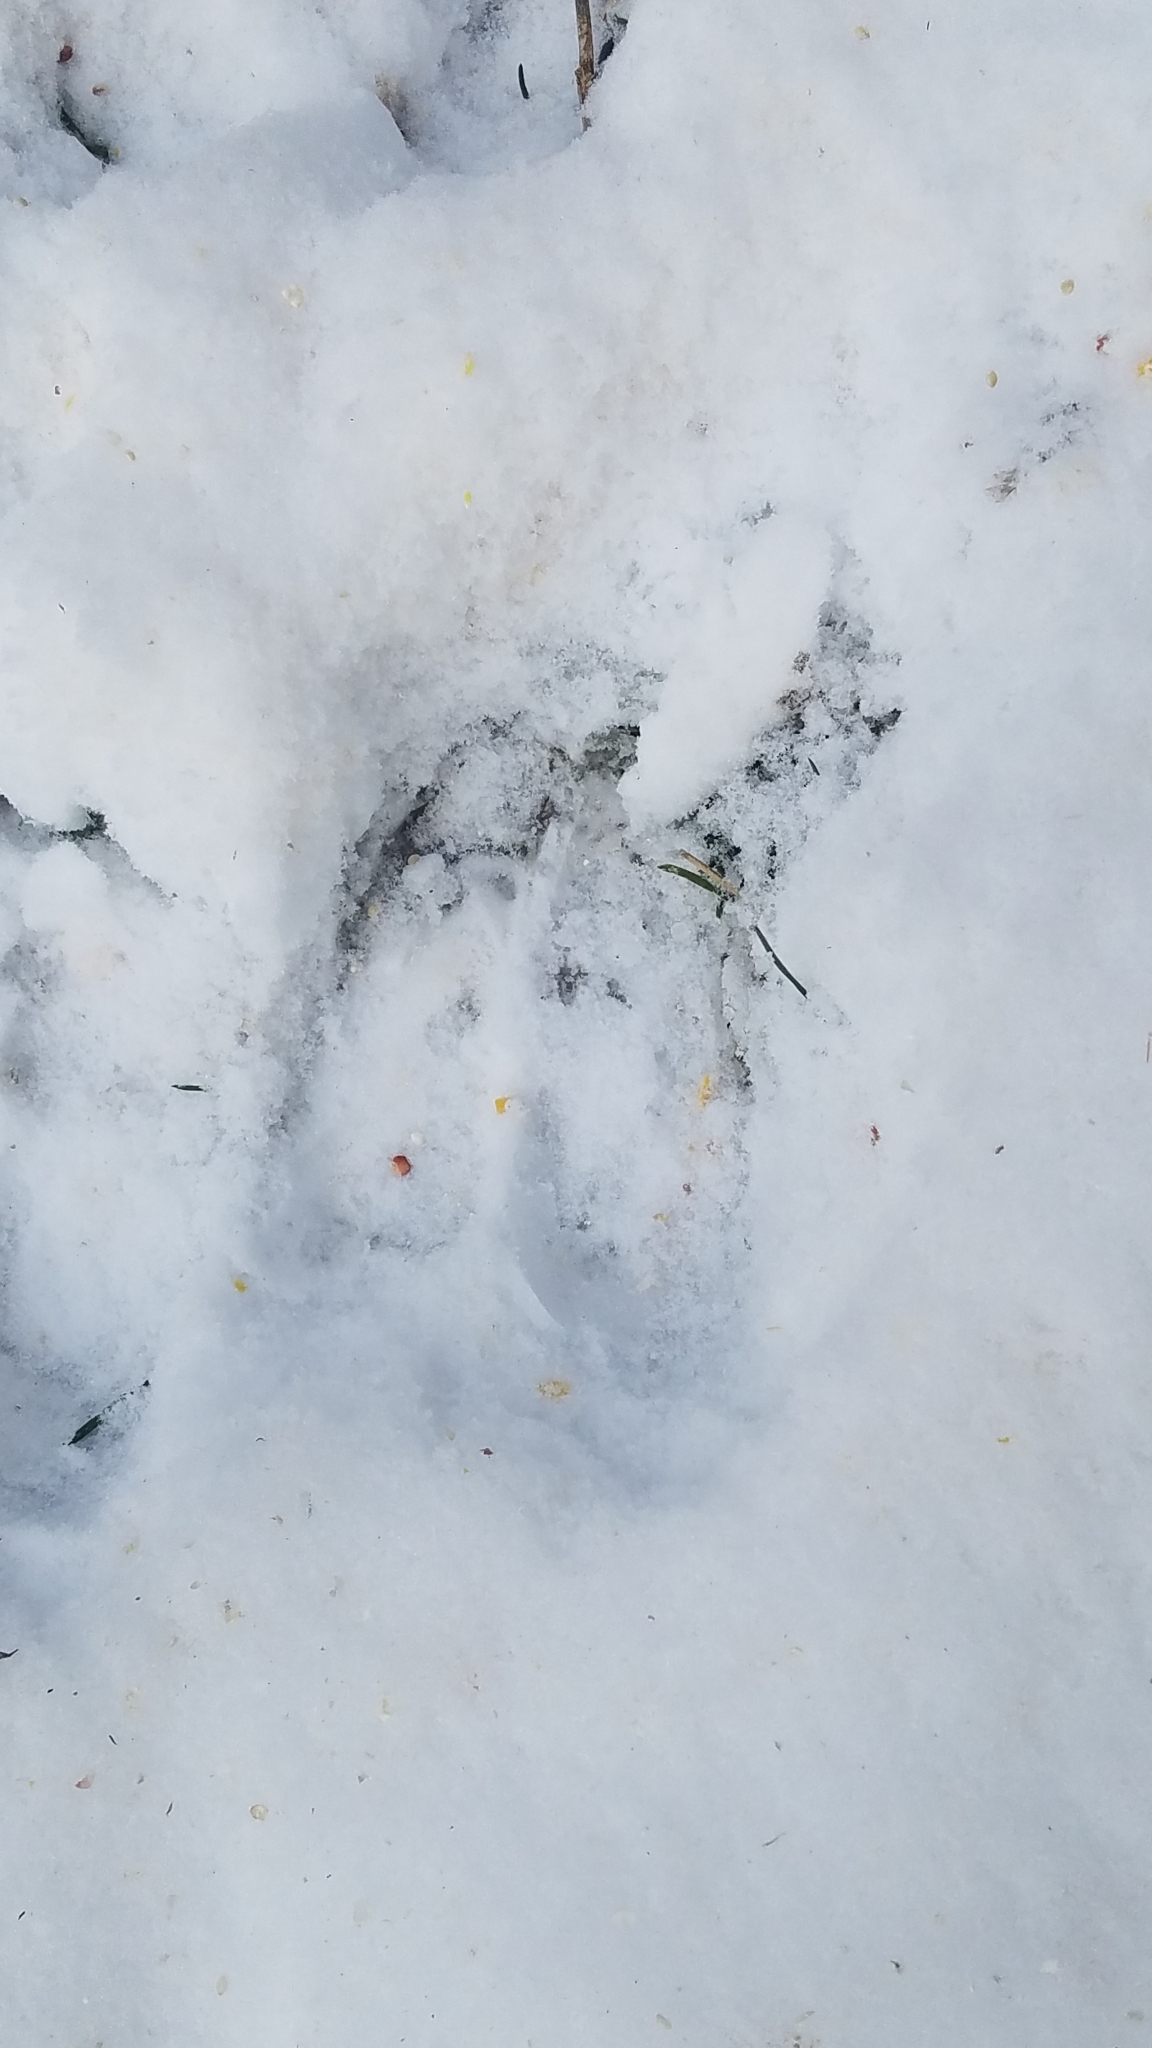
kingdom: Animalia
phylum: Chordata
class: Mammalia
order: Artiodactyla
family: Cervidae
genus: Alces
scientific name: Alces alces
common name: Moose
